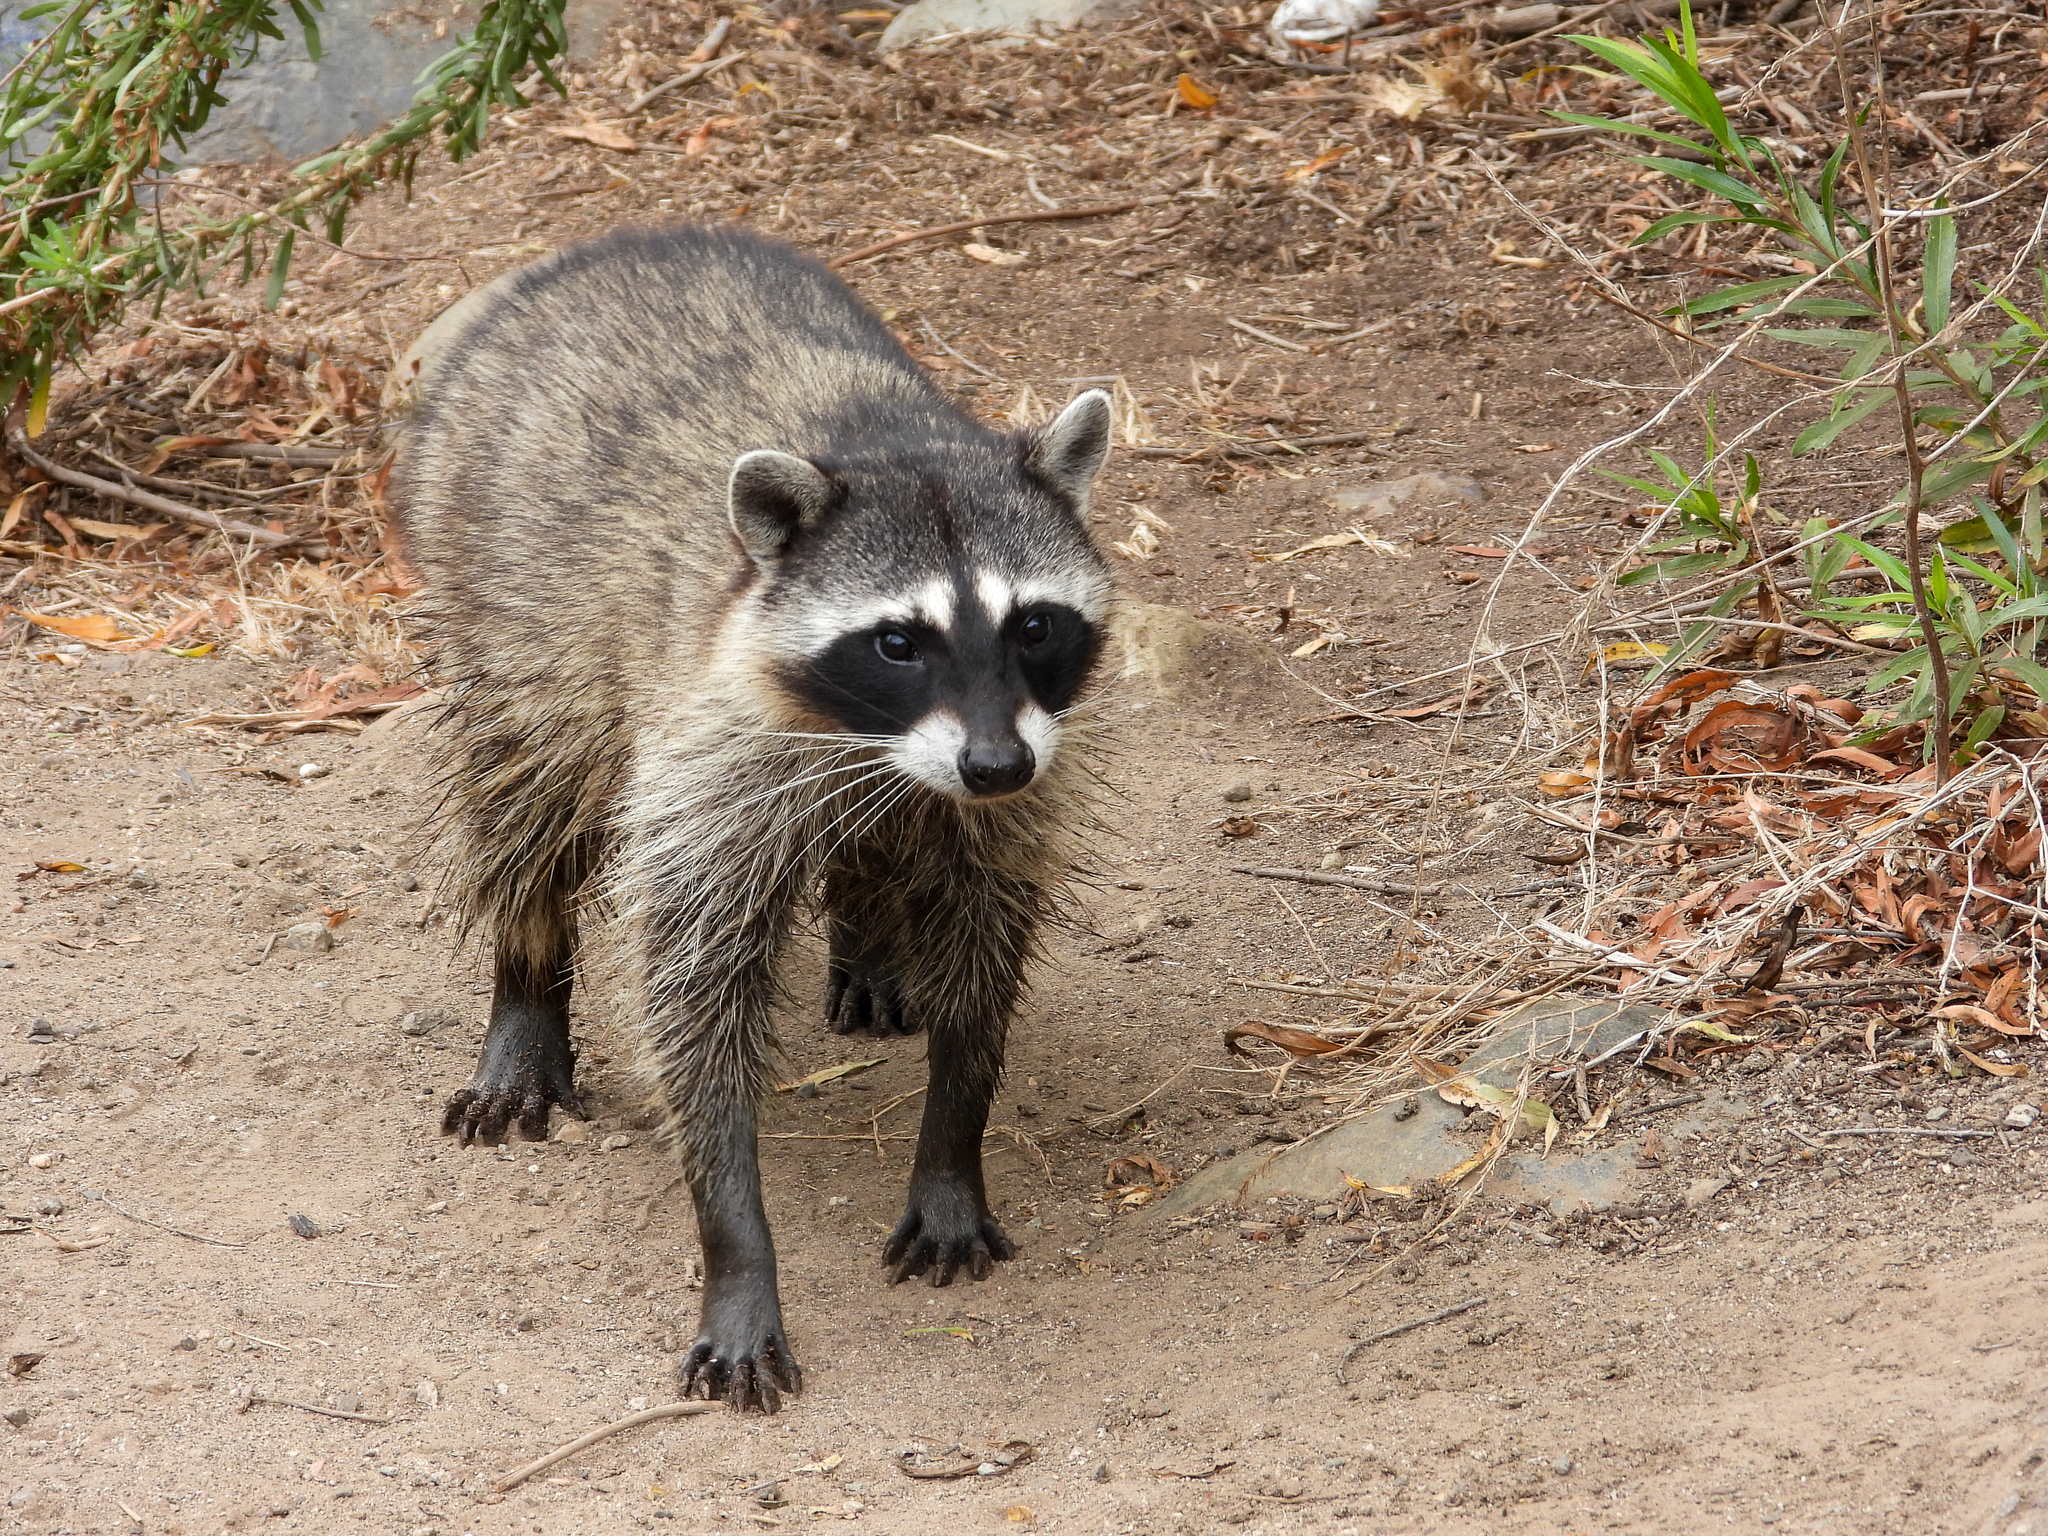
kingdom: Animalia
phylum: Chordata
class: Mammalia
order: Carnivora
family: Procyonidae
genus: Procyon
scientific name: Procyon lotor
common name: Raccoon
